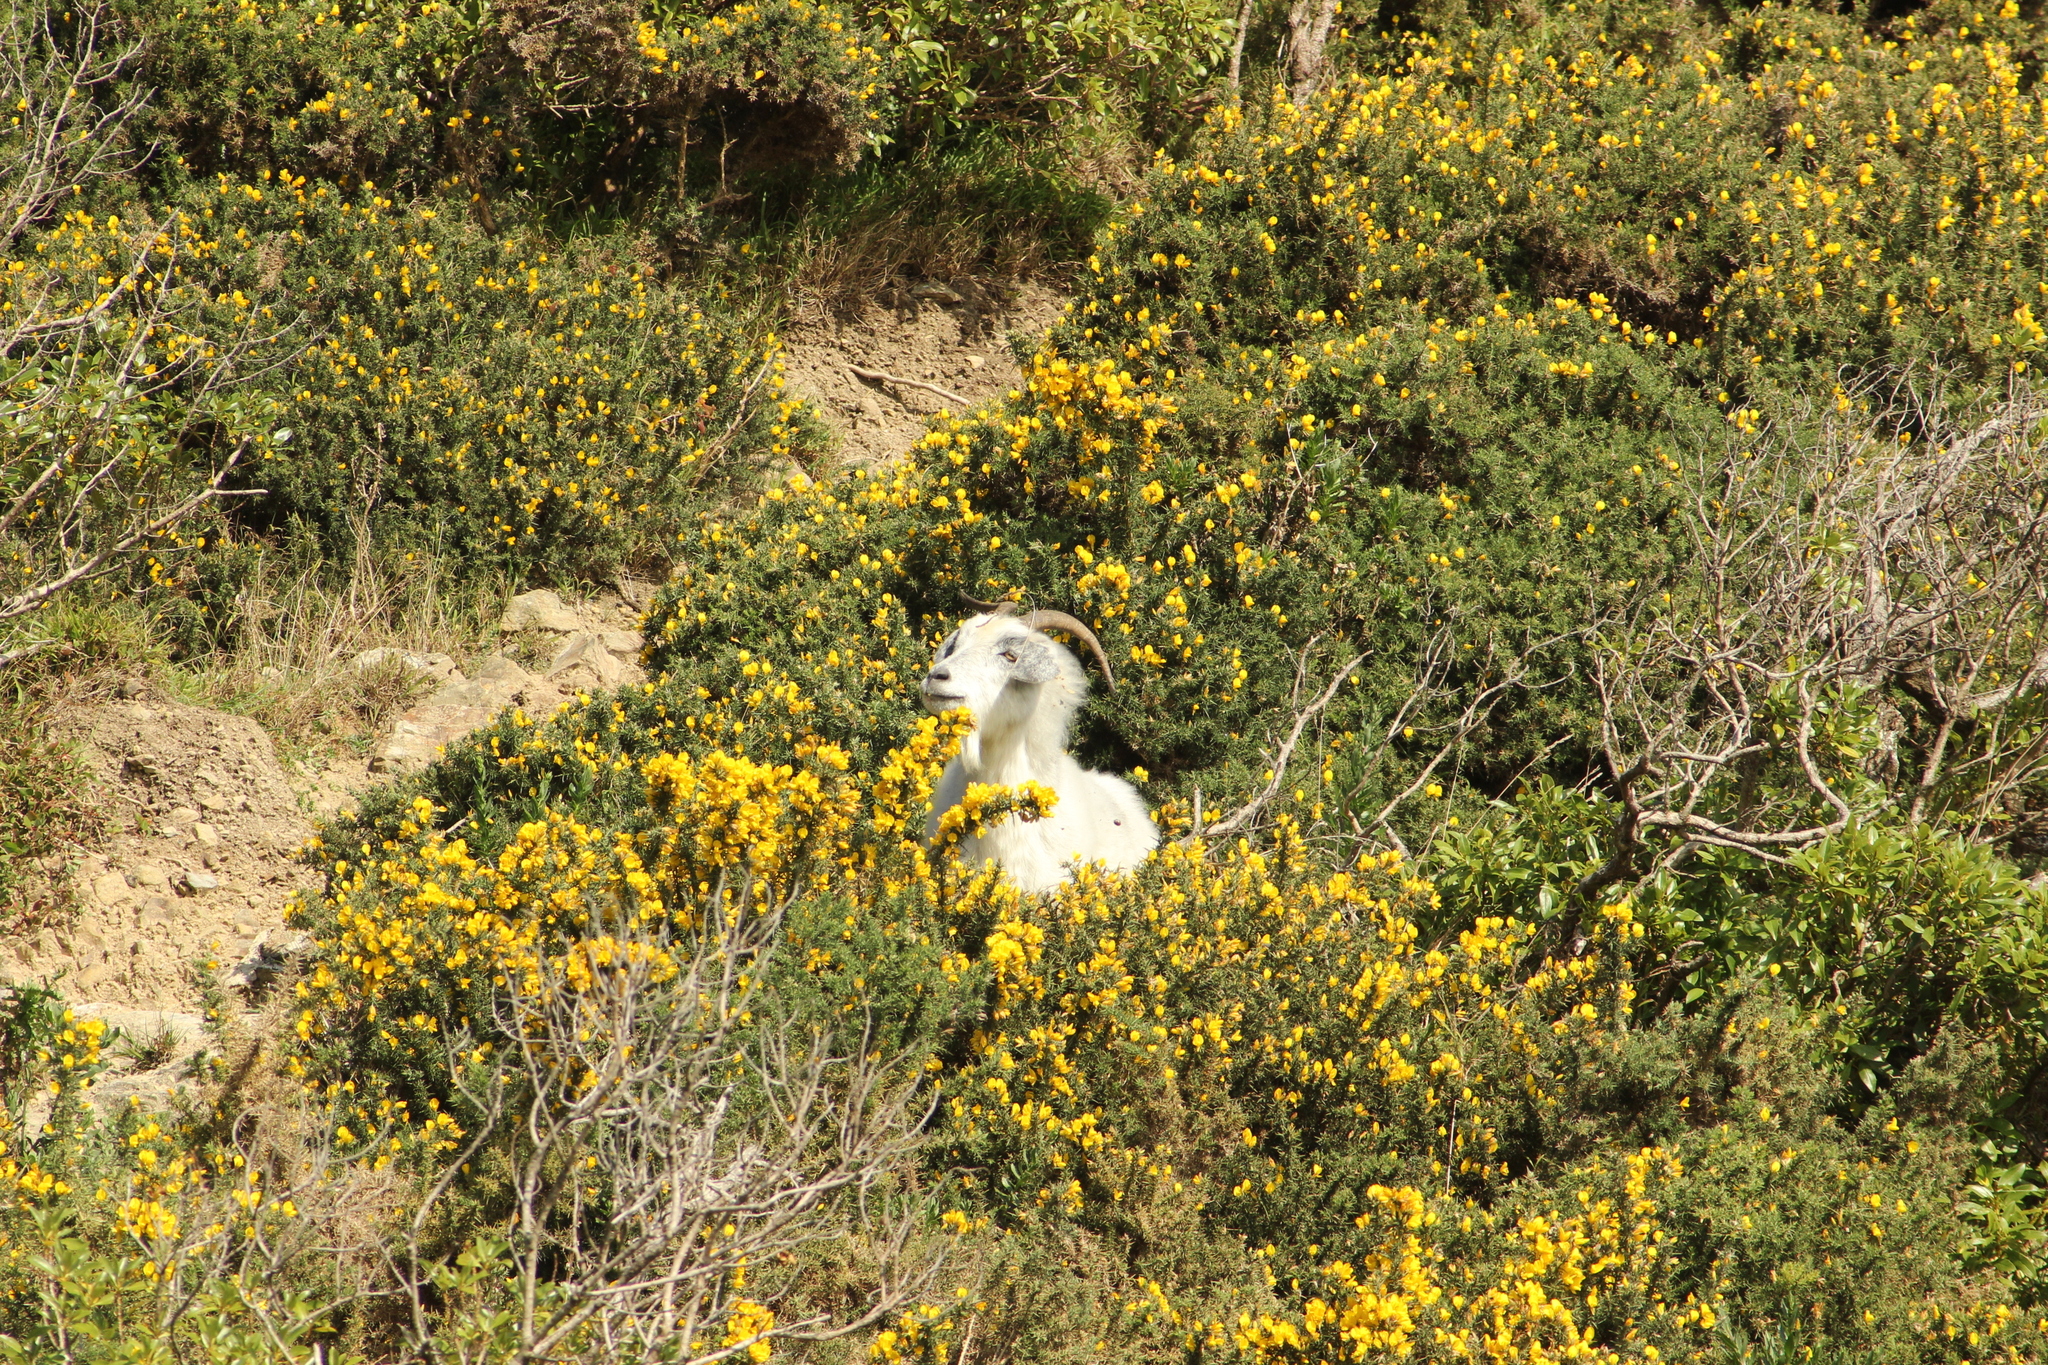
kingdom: Animalia
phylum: Chordata
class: Mammalia
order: Artiodactyla
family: Bovidae
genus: Capra
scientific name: Capra hircus
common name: Domestic goat
